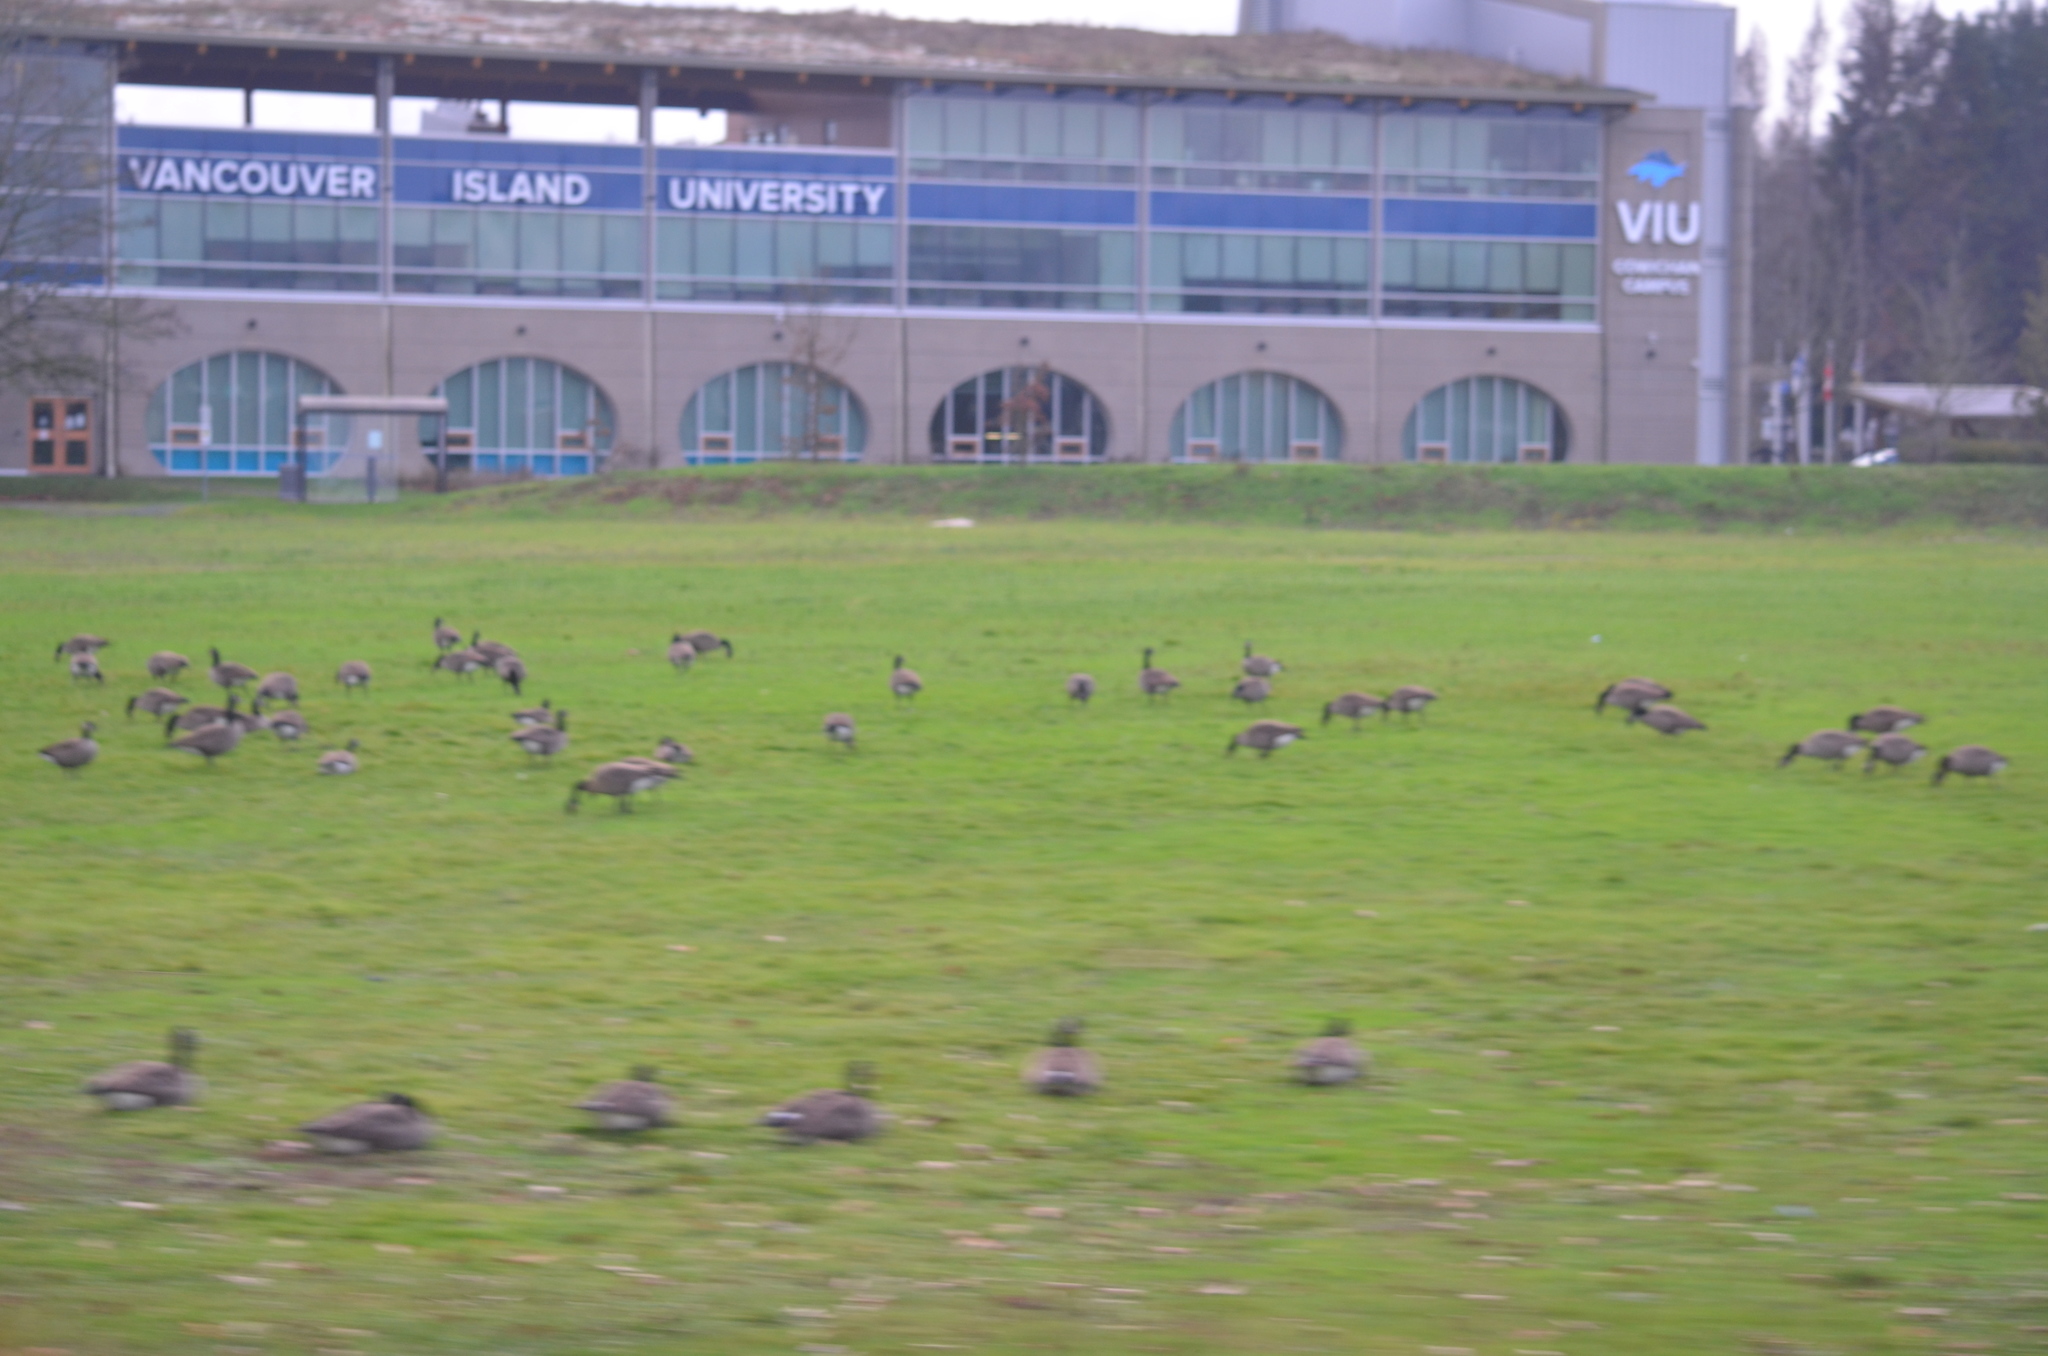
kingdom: Animalia
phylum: Chordata
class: Aves
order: Anseriformes
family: Anatidae
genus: Branta
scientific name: Branta canadensis
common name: Canada goose
